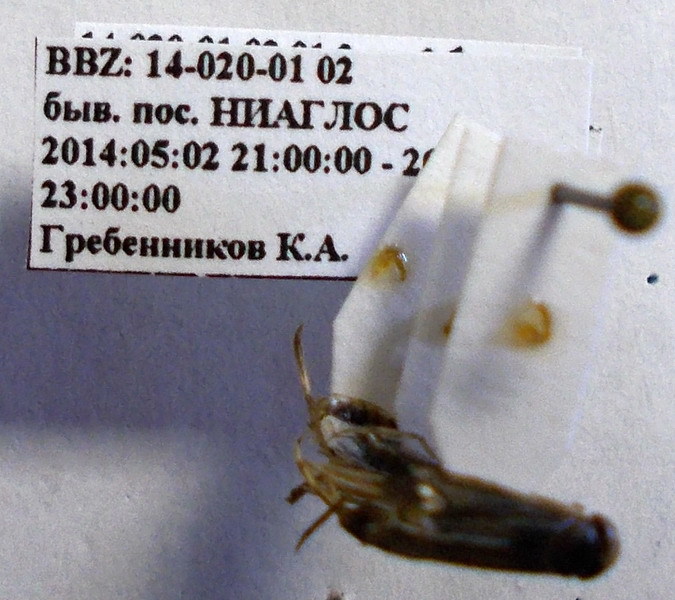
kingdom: Animalia
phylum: Arthropoda
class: Insecta
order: Hemiptera
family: Corixidae
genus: Sigara
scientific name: Sigara striata
